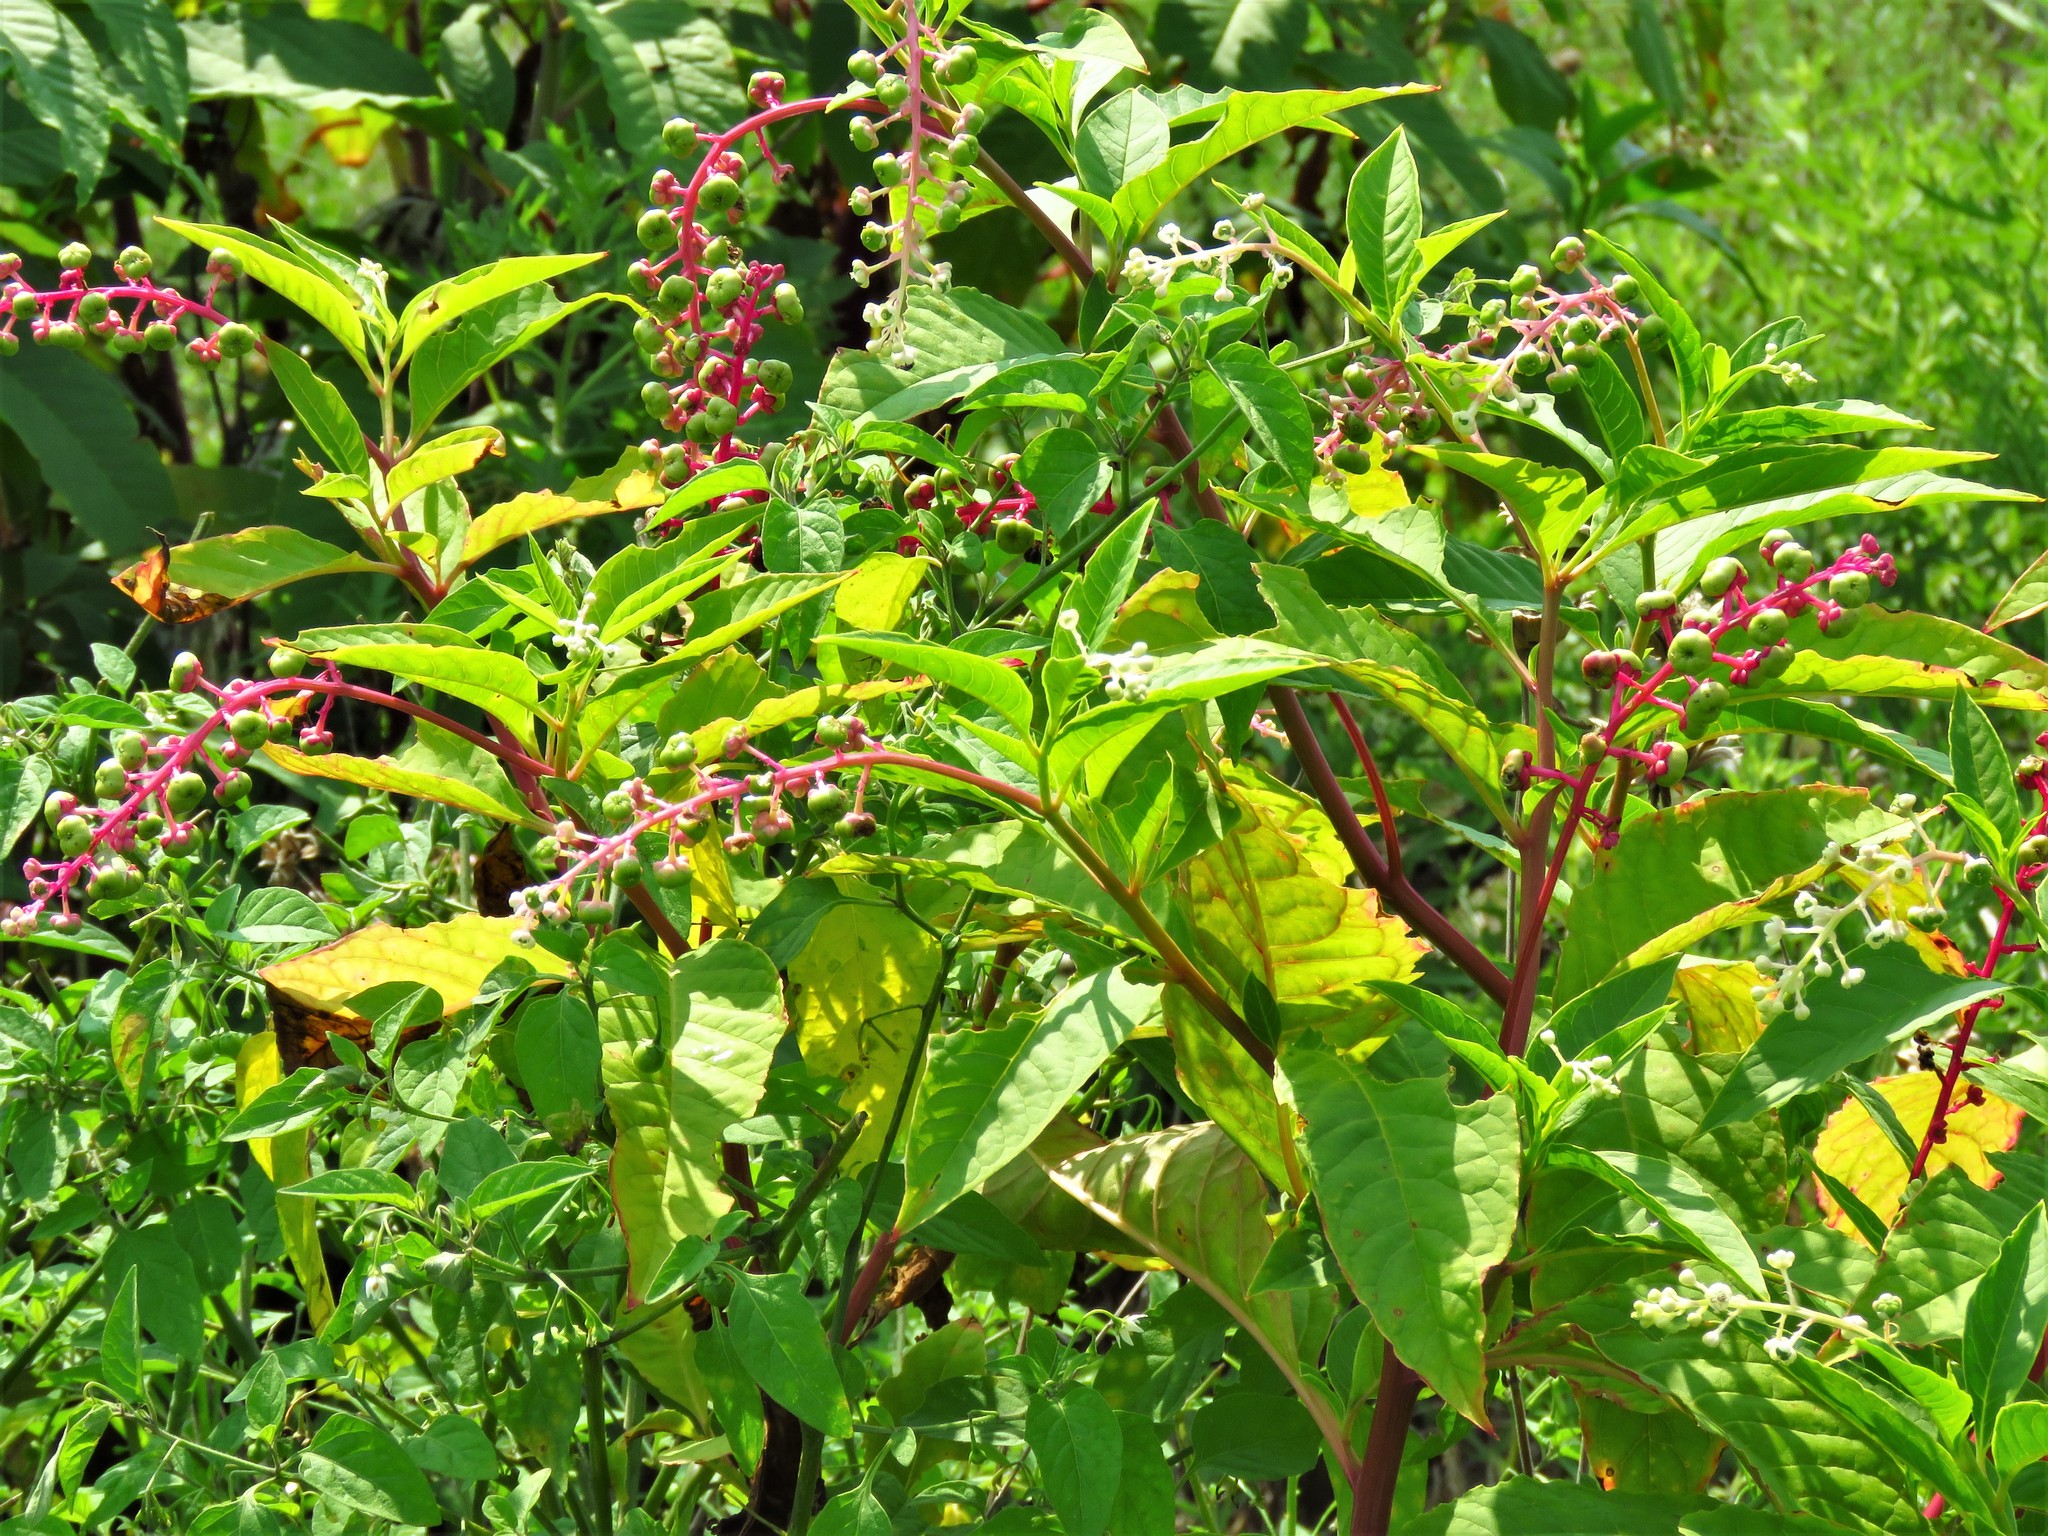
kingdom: Plantae
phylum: Tracheophyta
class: Magnoliopsida
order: Caryophyllales
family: Phytolaccaceae
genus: Phytolacca
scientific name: Phytolacca americana
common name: American pokeweed
